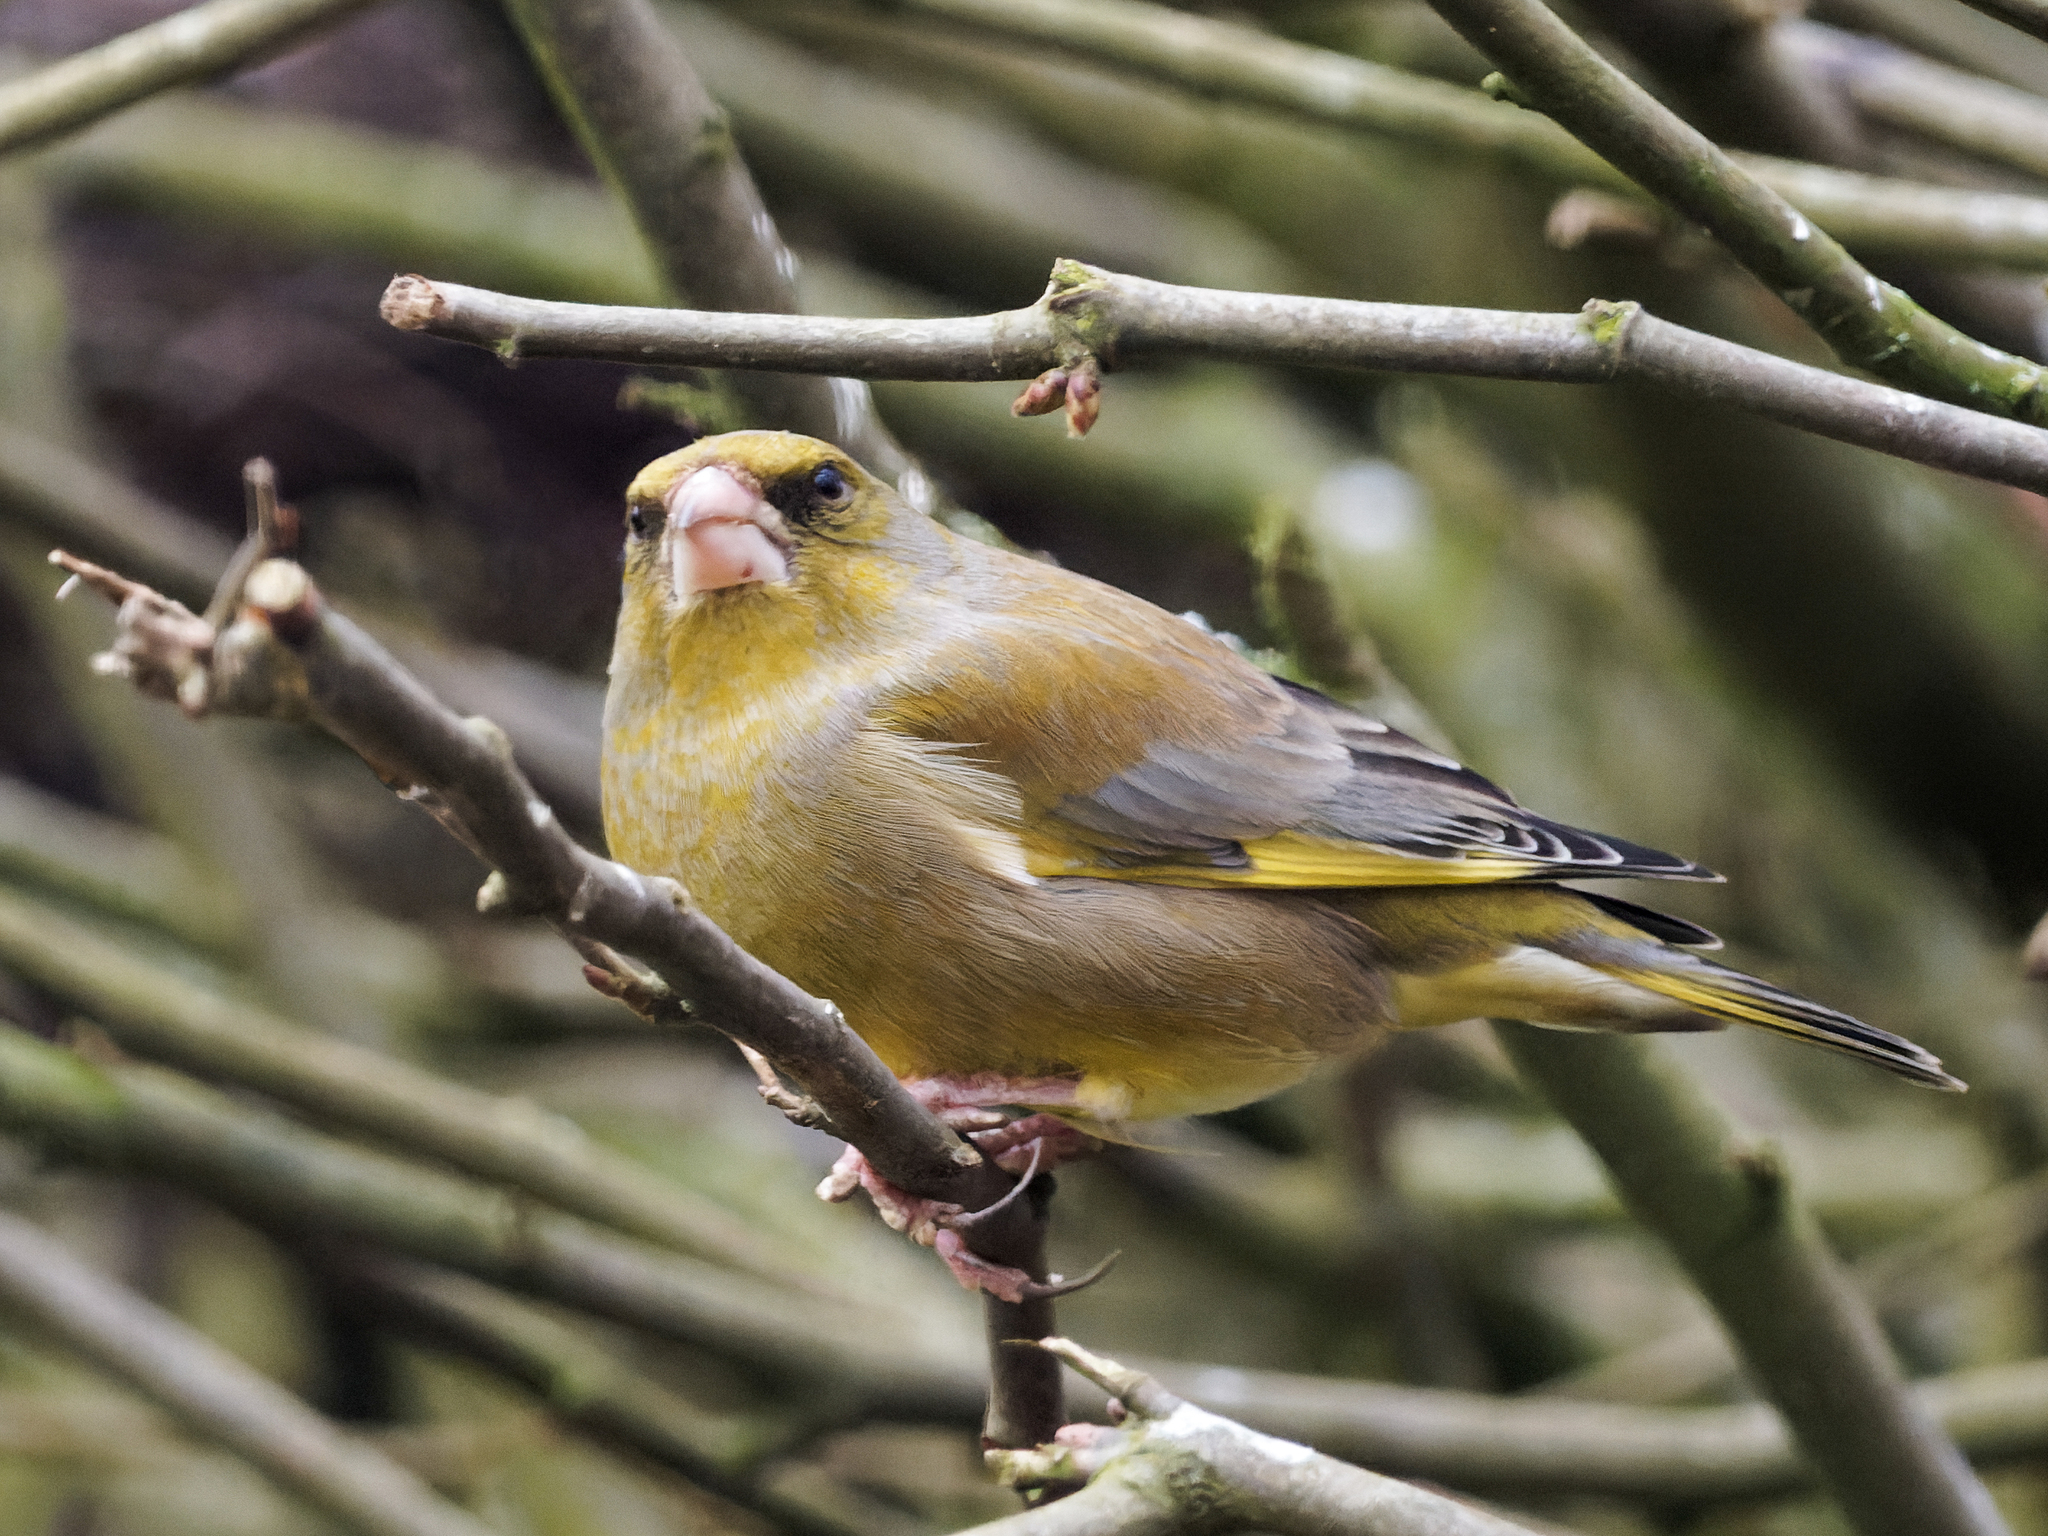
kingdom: Plantae
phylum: Tracheophyta
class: Liliopsida
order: Poales
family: Poaceae
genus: Chloris
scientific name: Chloris chloris
